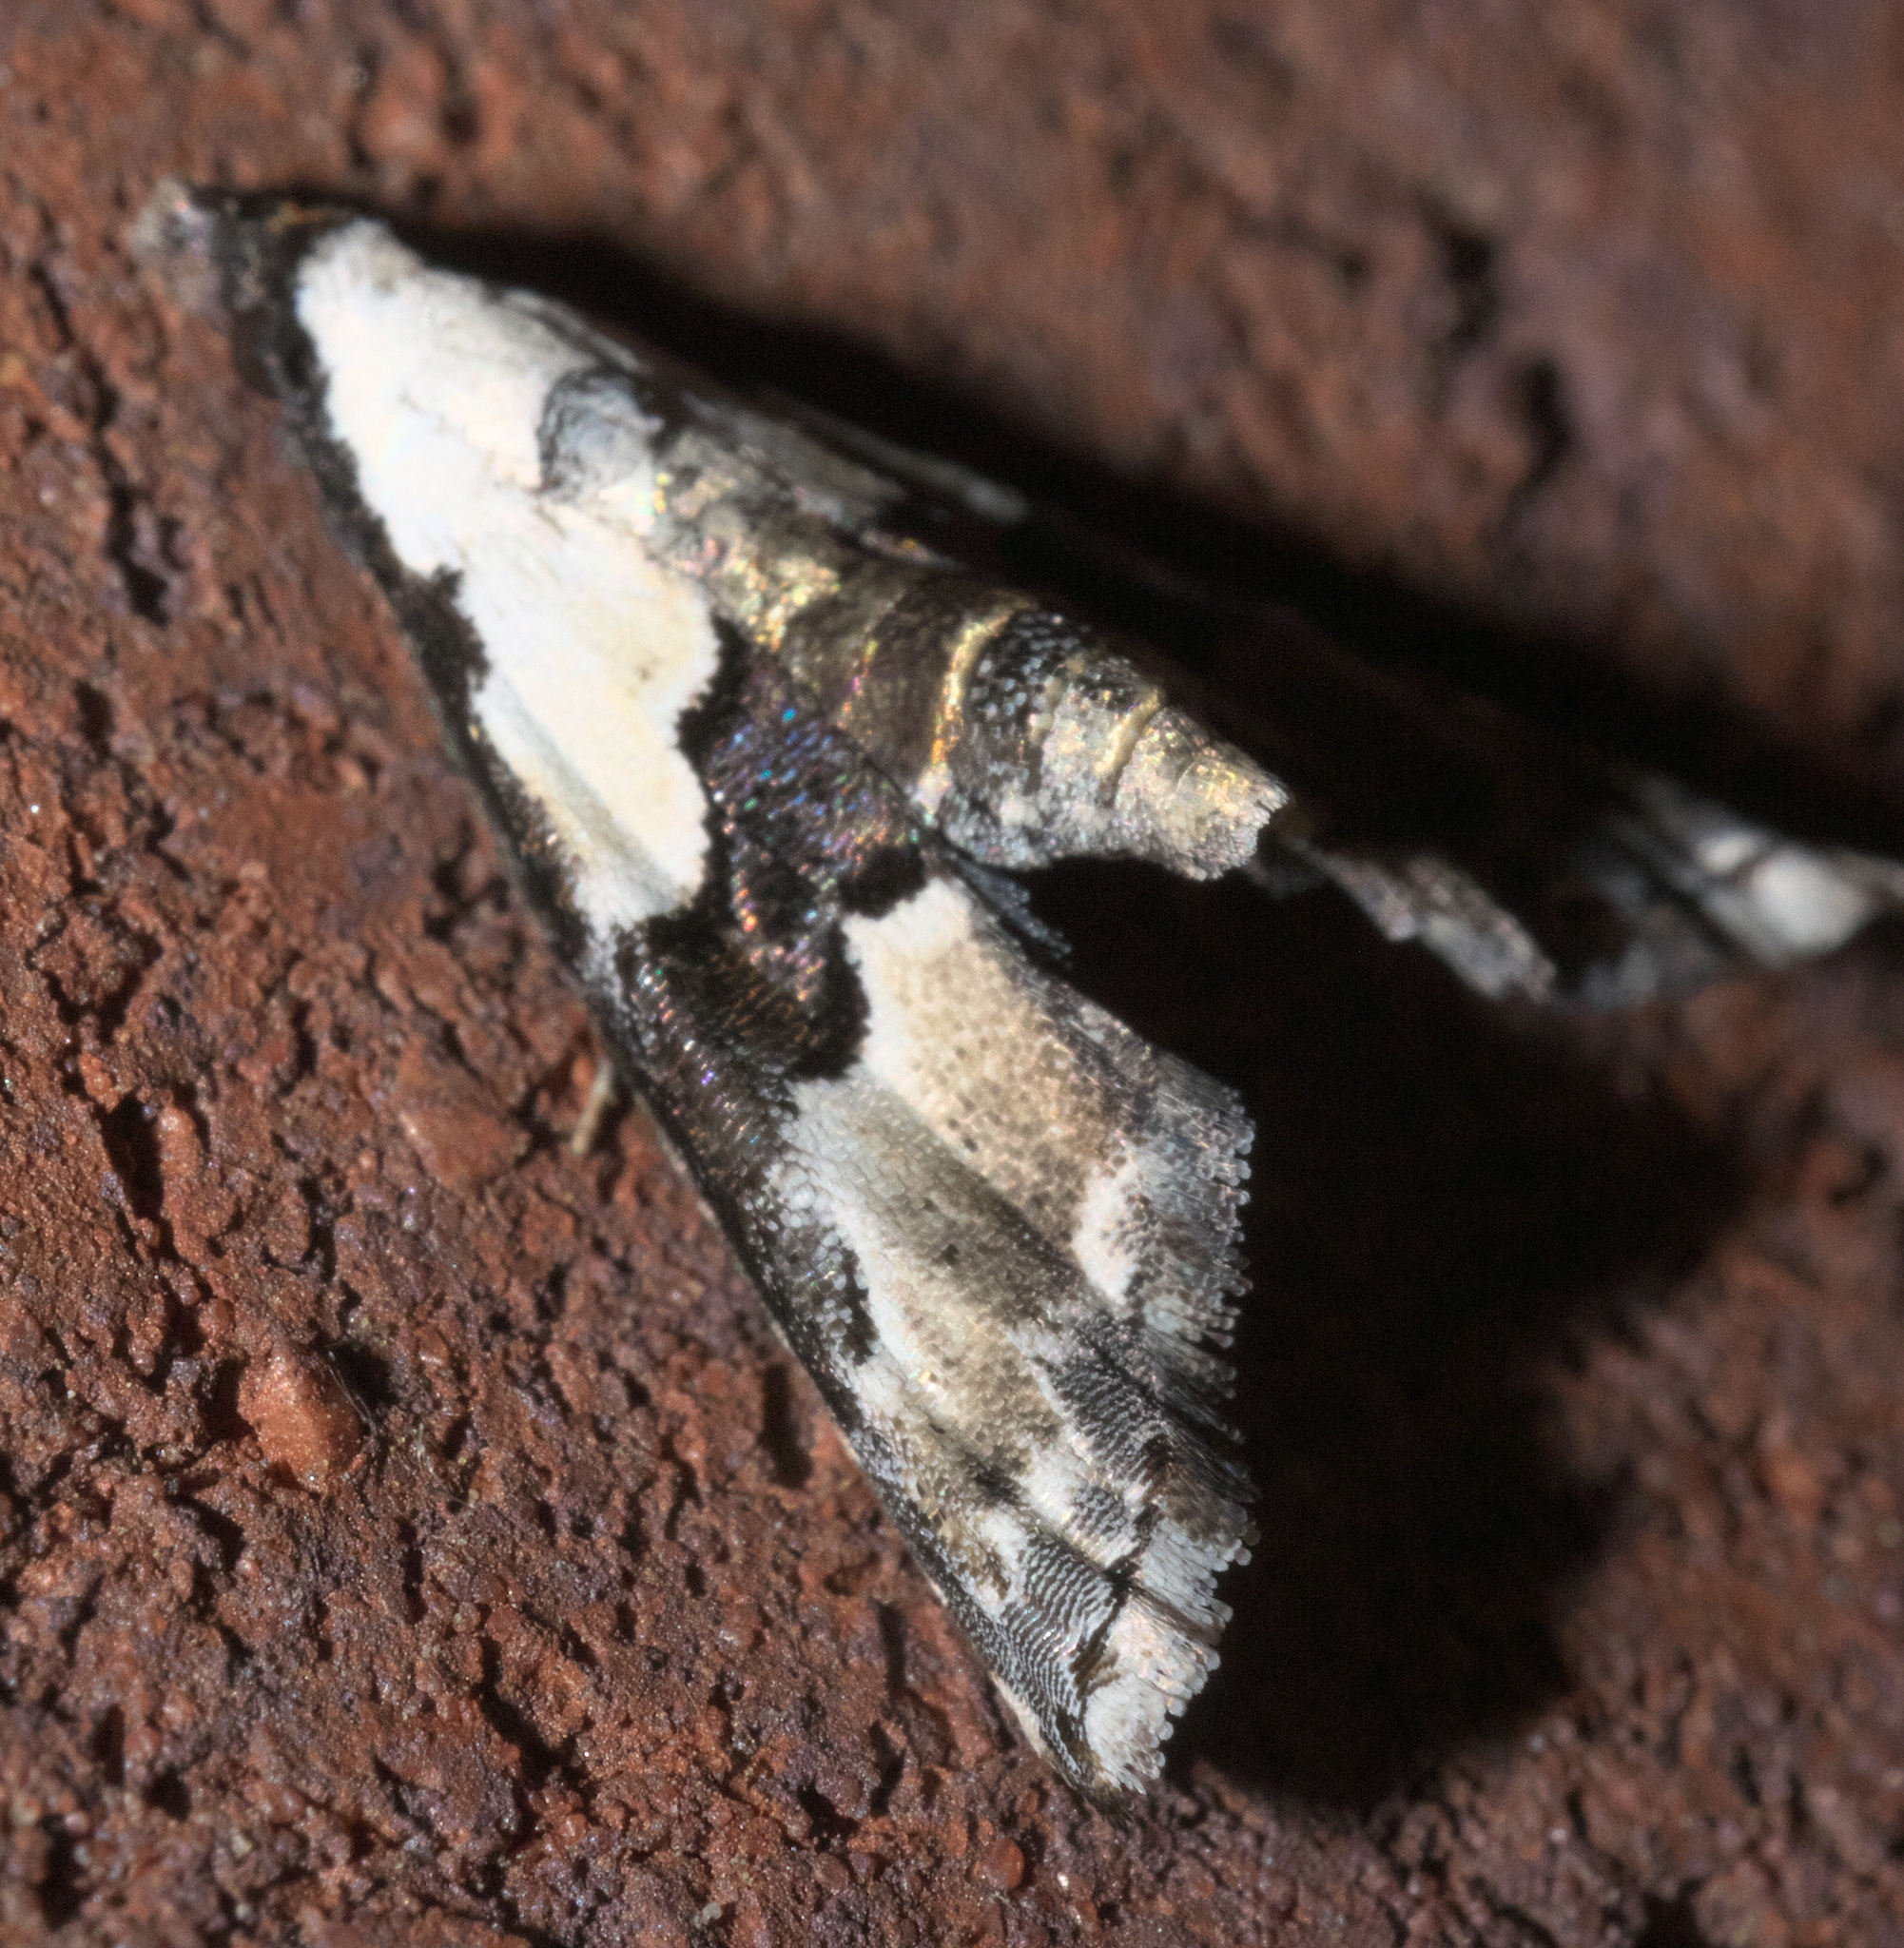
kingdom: Animalia
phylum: Arthropoda
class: Insecta
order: Lepidoptera
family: Noctuidae
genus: Nigetia
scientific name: Nigetia formosalis
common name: Thin-winged owlet
